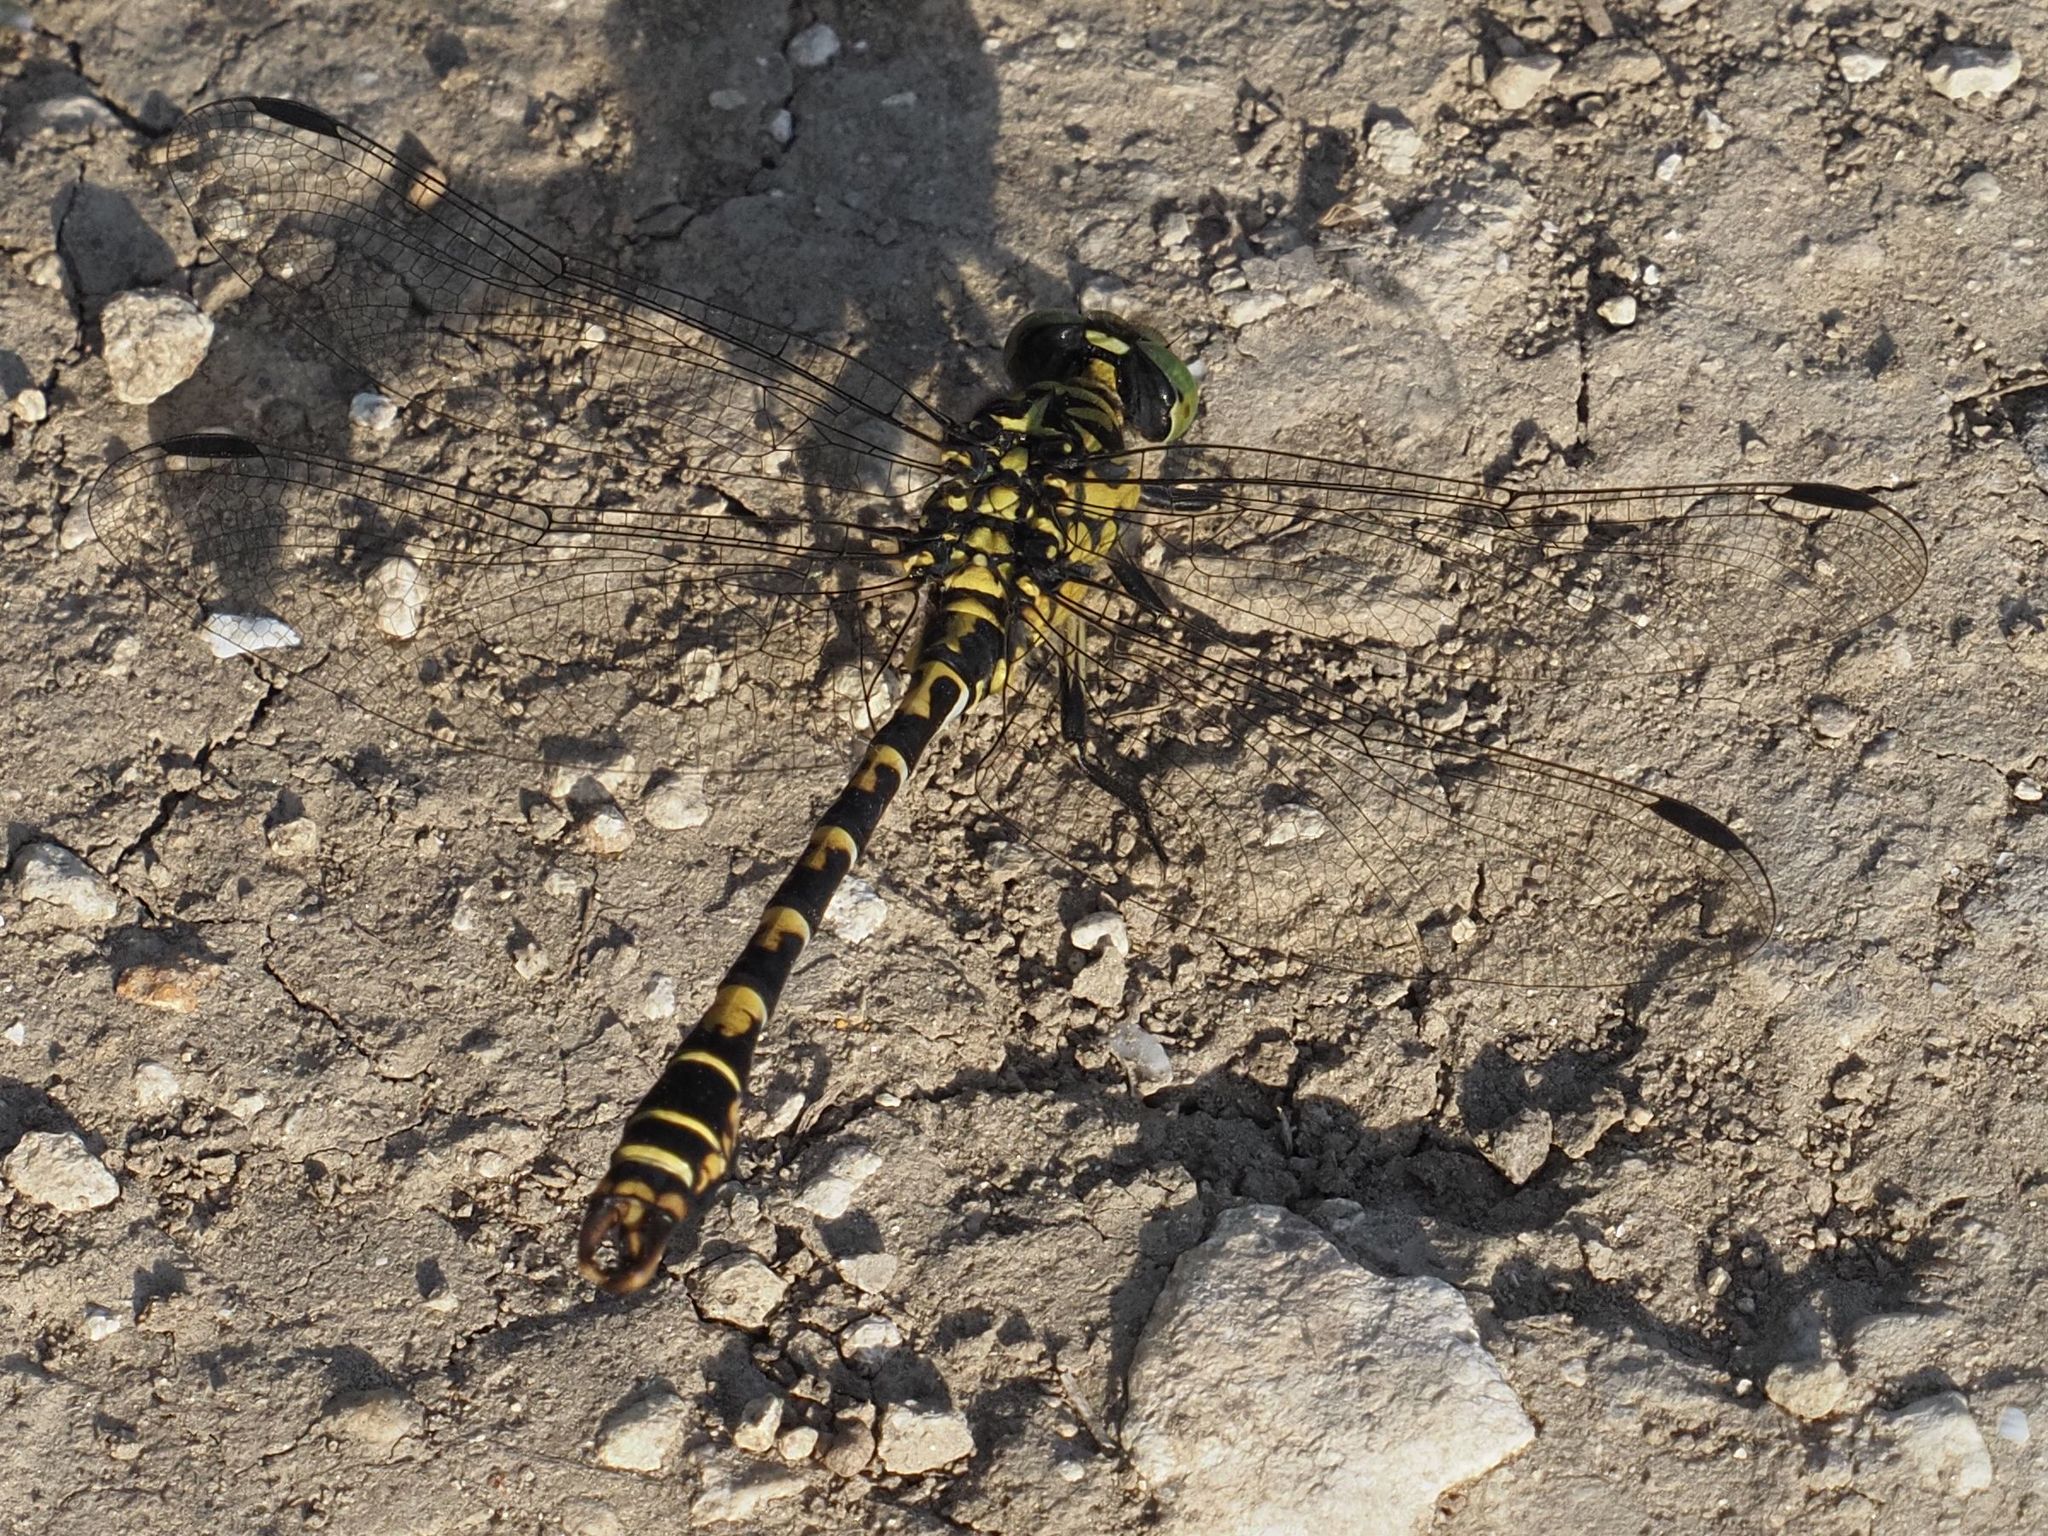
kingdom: Animalia
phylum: Arthropoda
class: Insecta
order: Odonata
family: Gomphidae
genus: Onychogomphus
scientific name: Onychogomphus forcipatus
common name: Small pincertail
